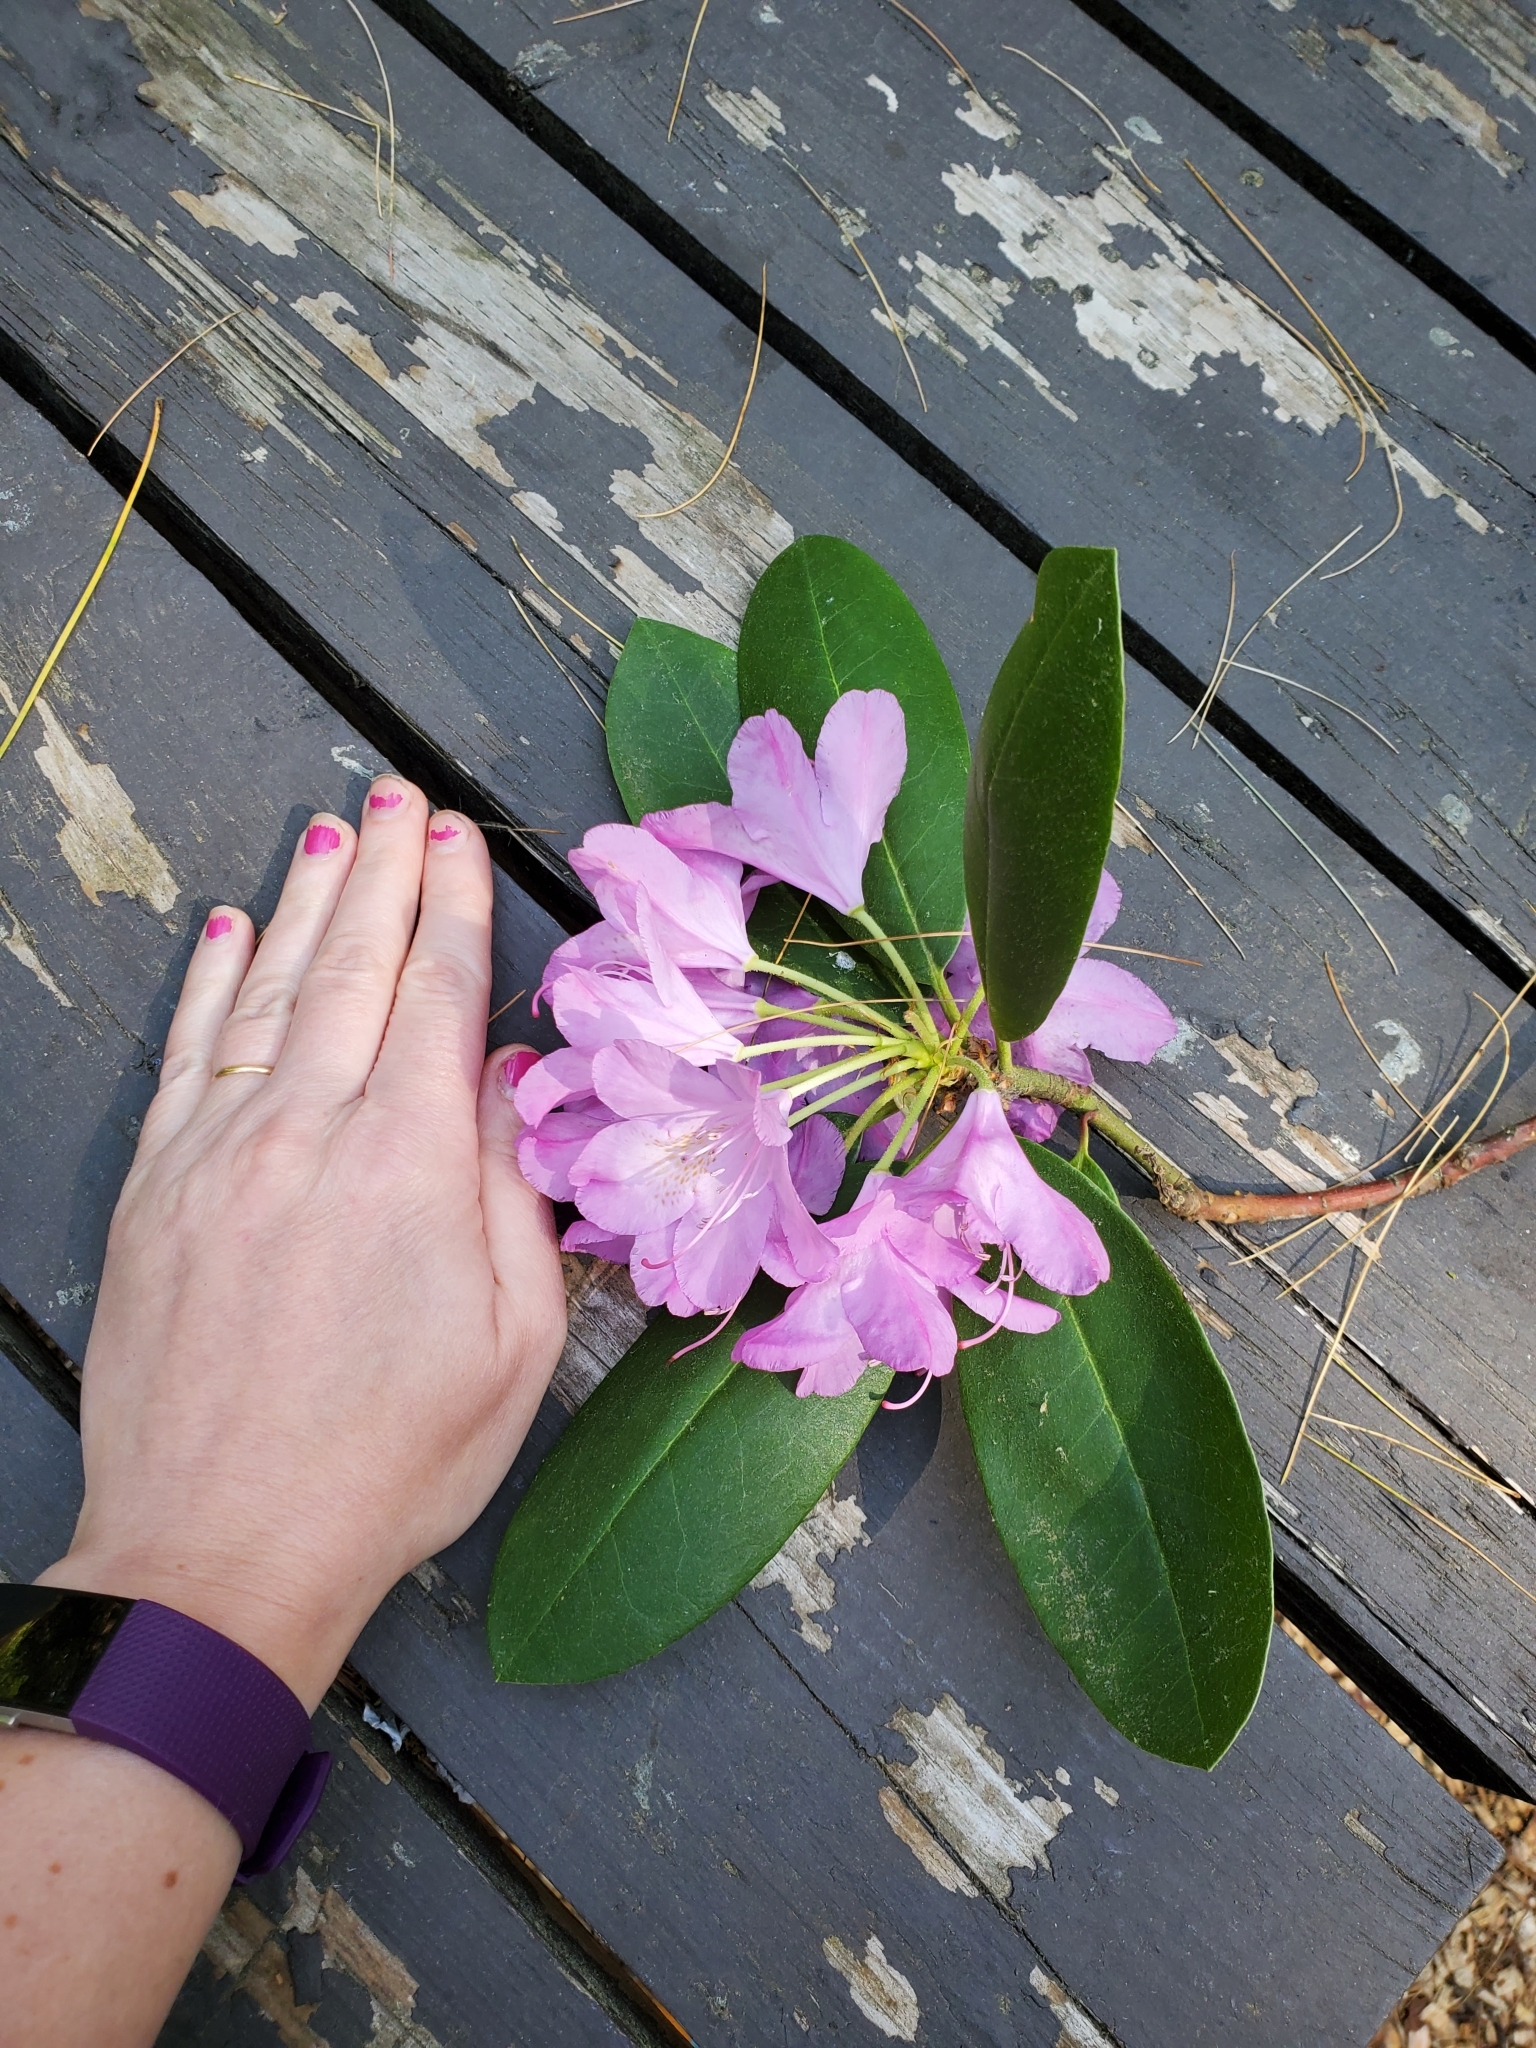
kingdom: Plantae
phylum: Tracheophyta
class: Magnoliopsida
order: Ericales
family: Ericaceae
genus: Rhododendron
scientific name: Rhododendron catawbiense
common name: Catawba rhododendron
